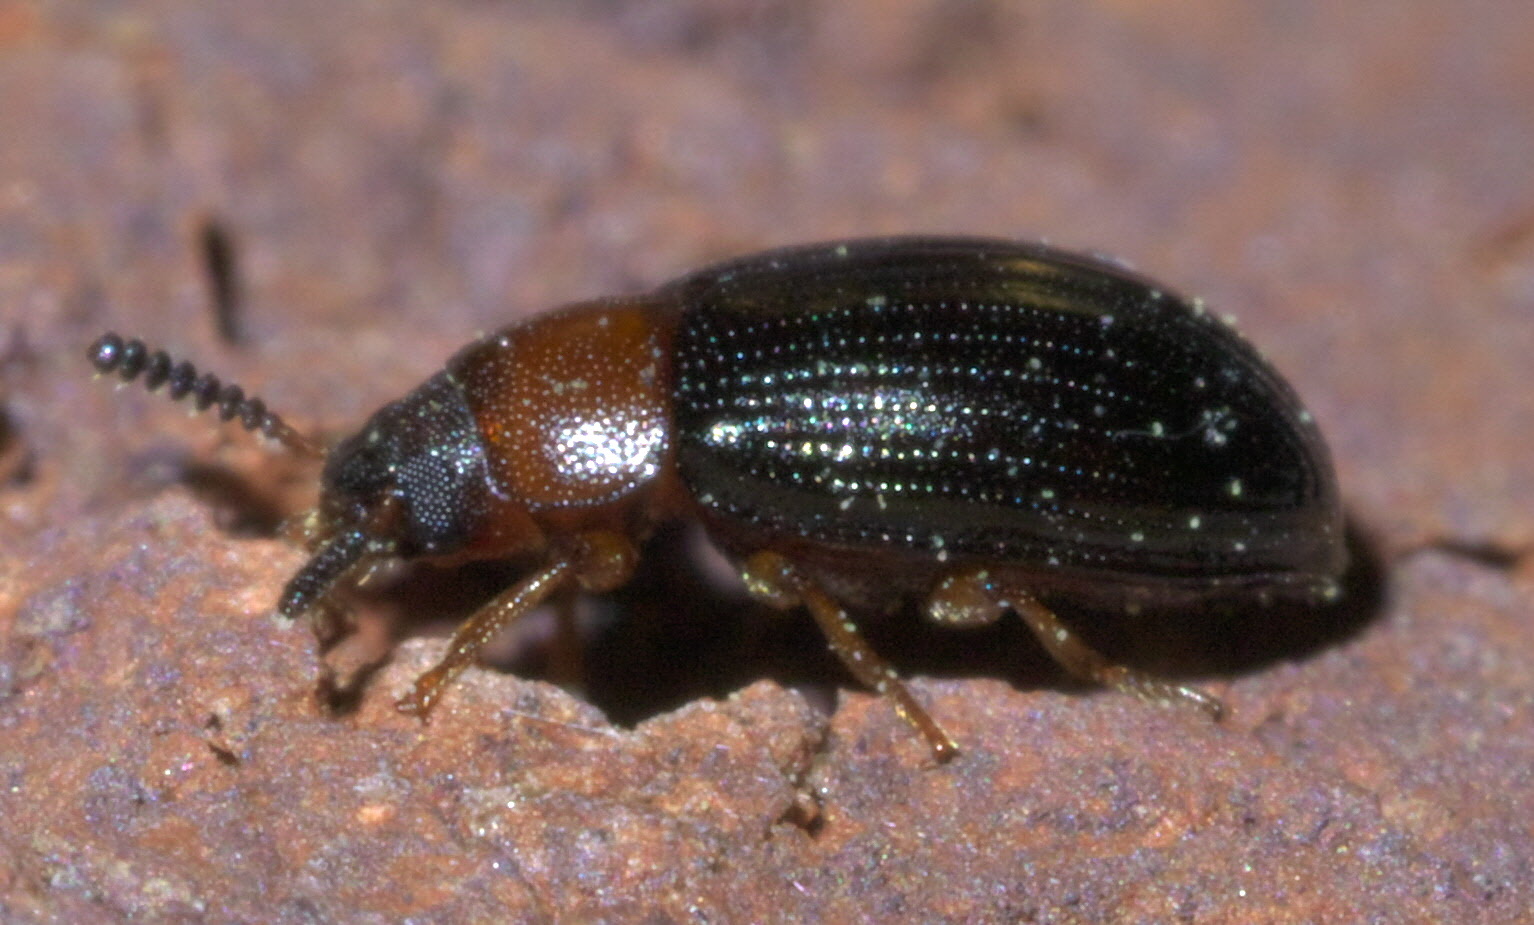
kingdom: Animalia
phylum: Arthropoda
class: Insecta
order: Coleoptera
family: Tenebrionidae
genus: Neomida
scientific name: Neomida bicornis
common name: Two-horned darkling beetle
